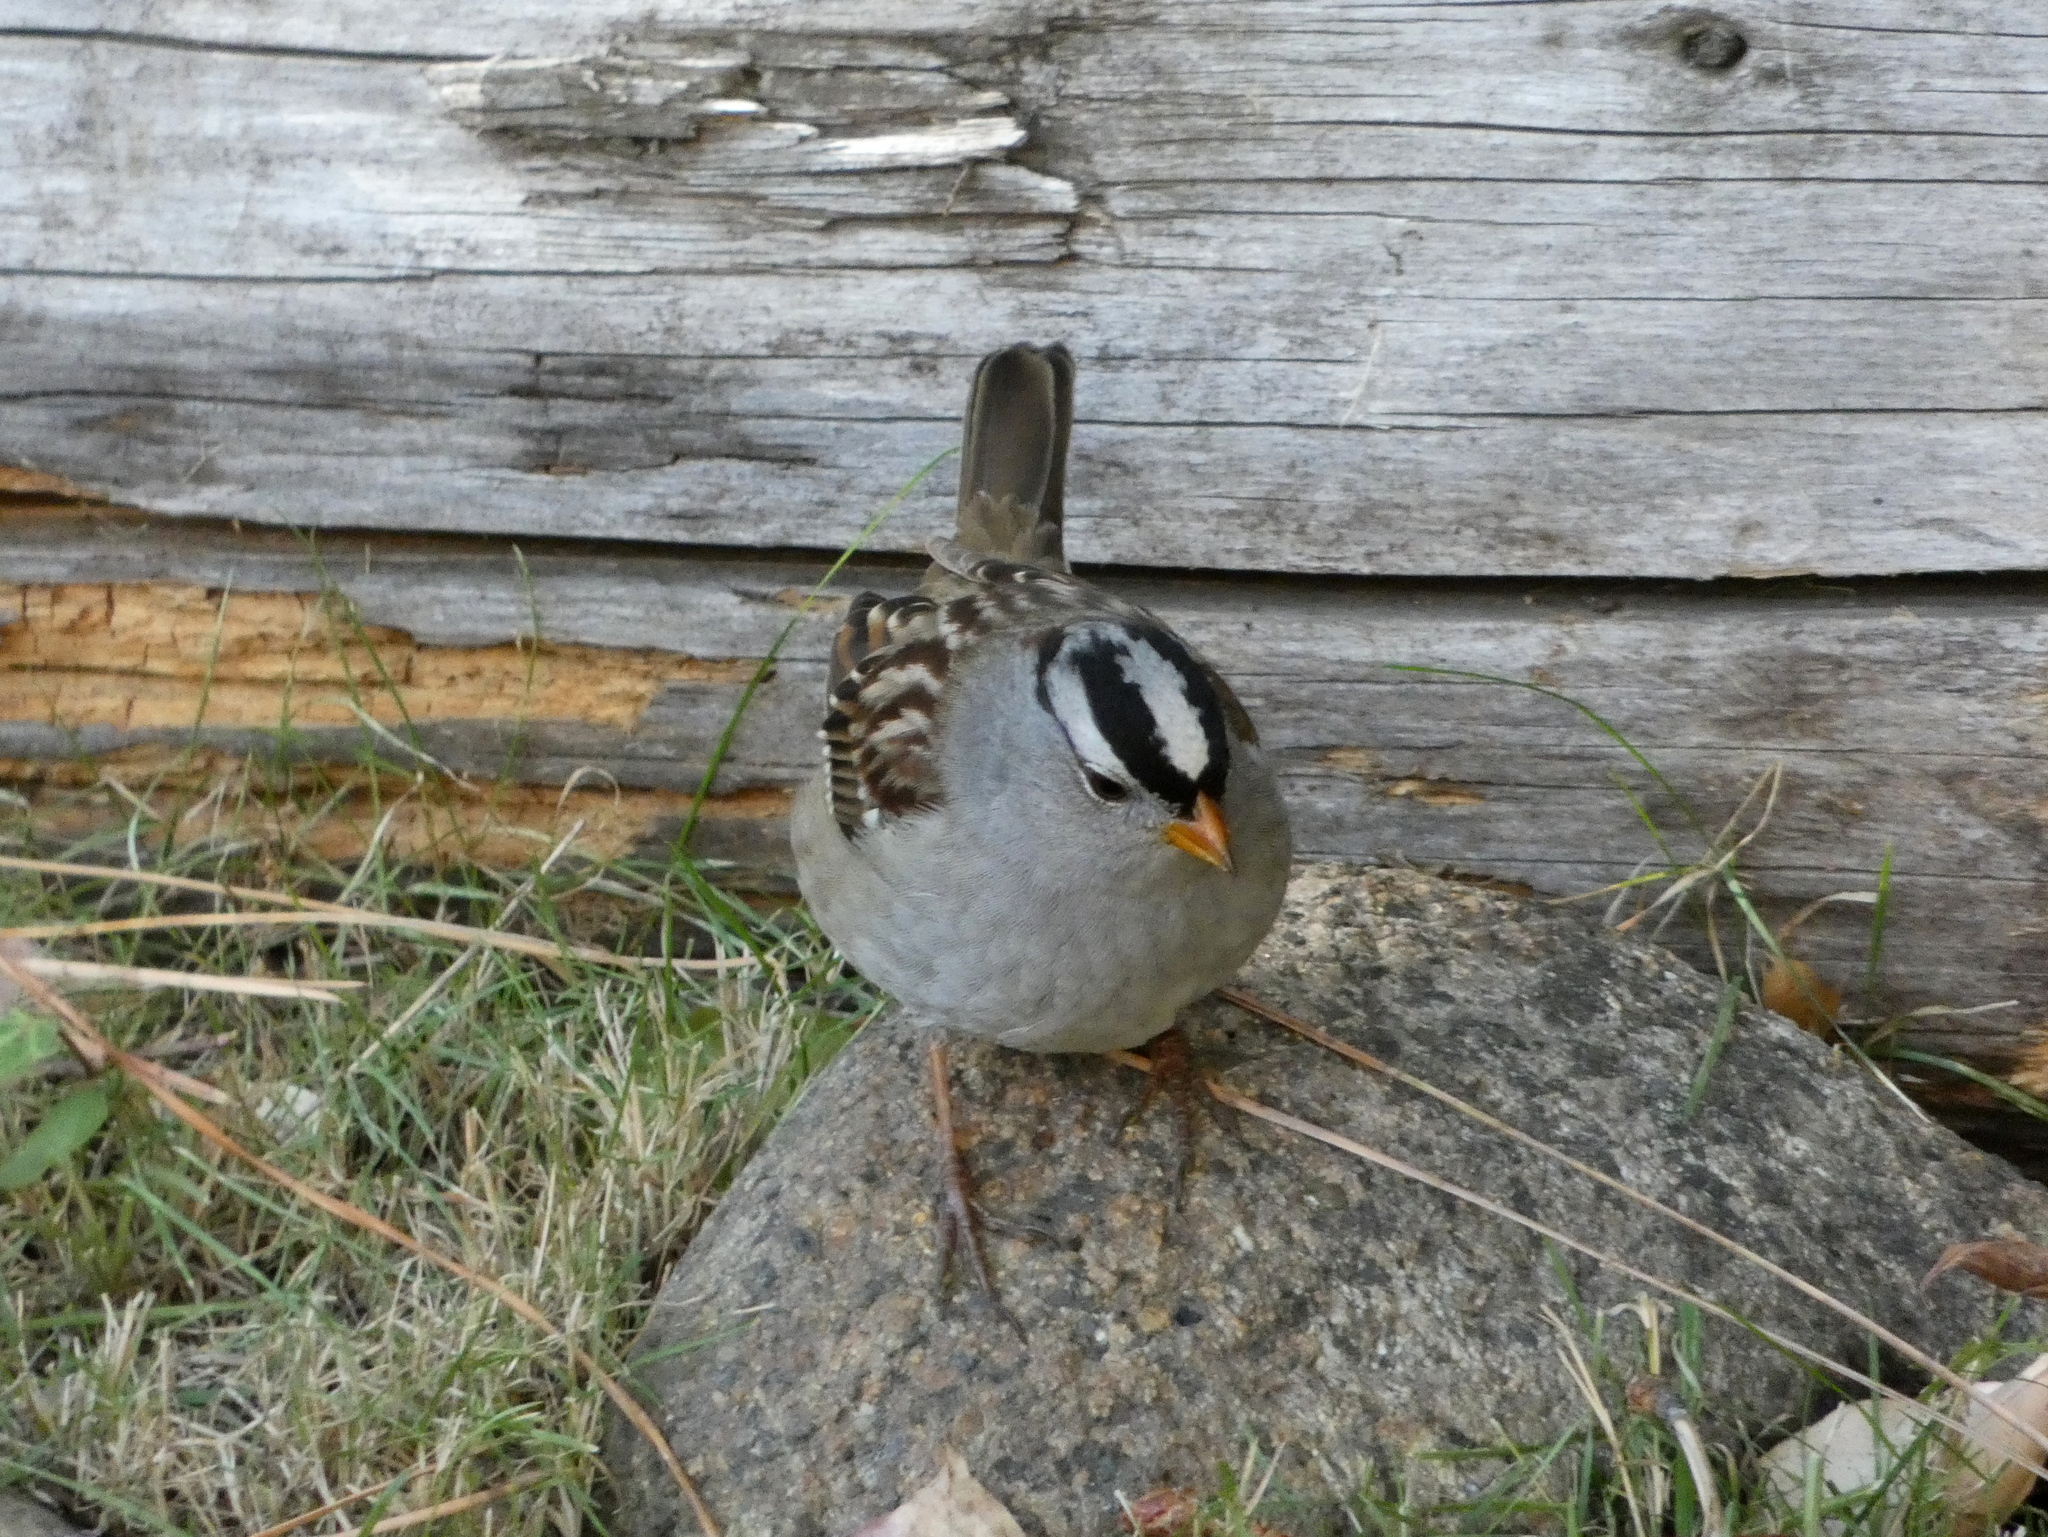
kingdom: Animalia
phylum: Chordata
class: Aves
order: Passeriformes
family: Passerellidae
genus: Zonotrichia
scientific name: Zonotrichia leucophrys
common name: White-crowned sparrow
